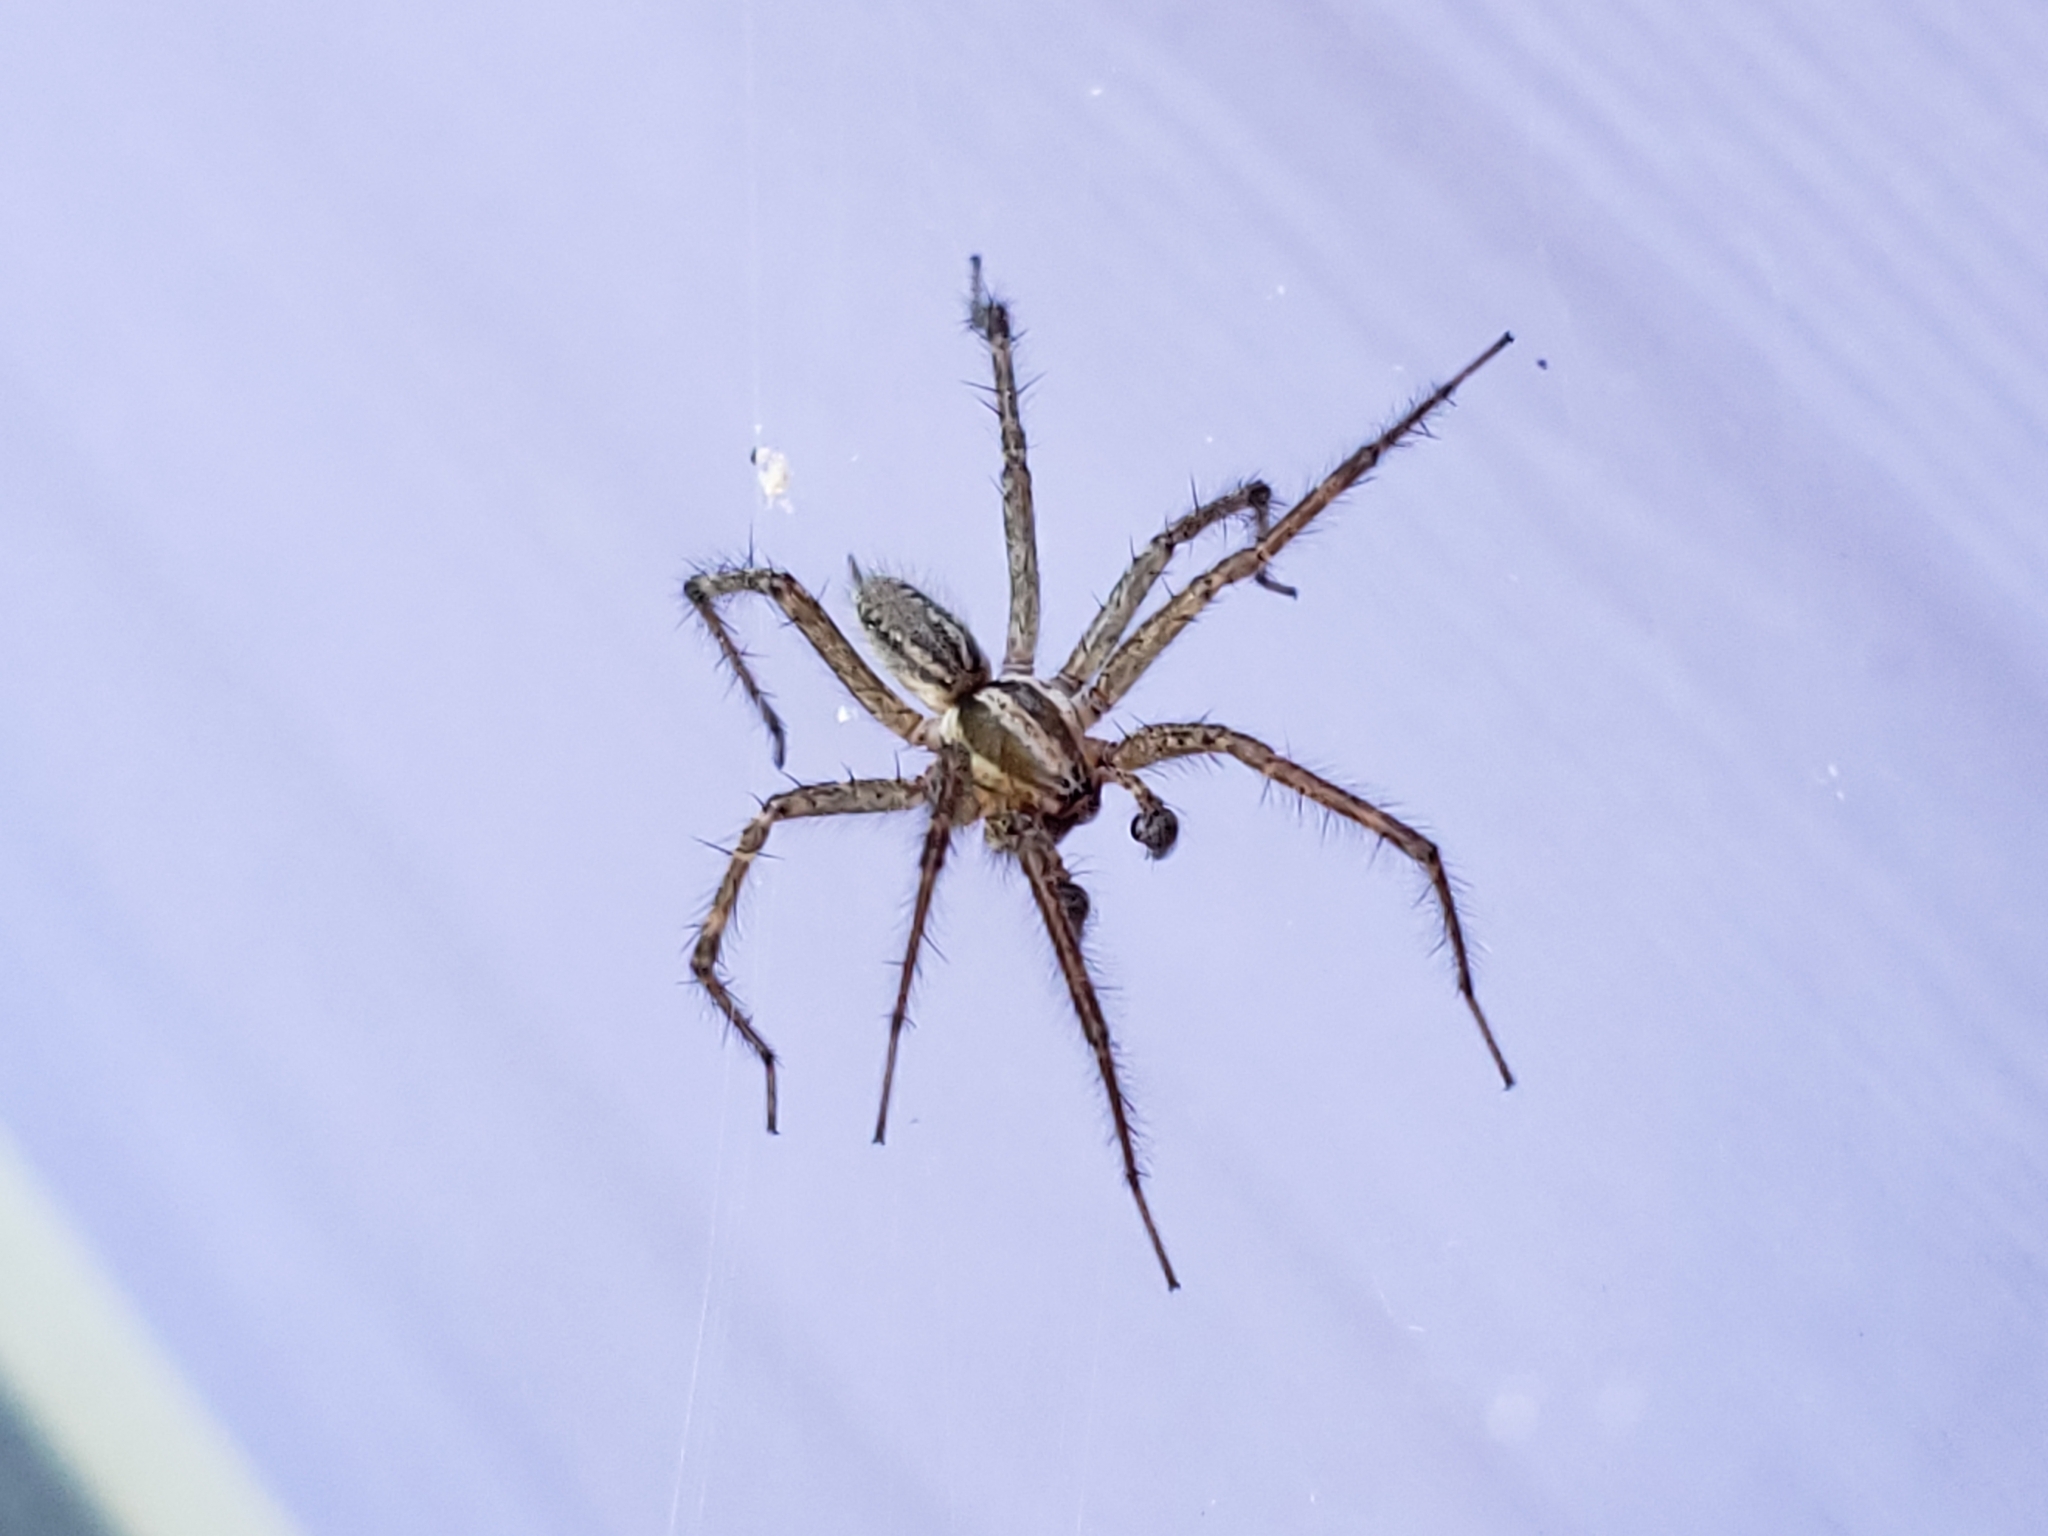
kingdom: Animalia
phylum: Arthropoda
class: Arachnida
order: Araneae
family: Agelenidae
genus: Agelenopsis
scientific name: Agelenopsis
